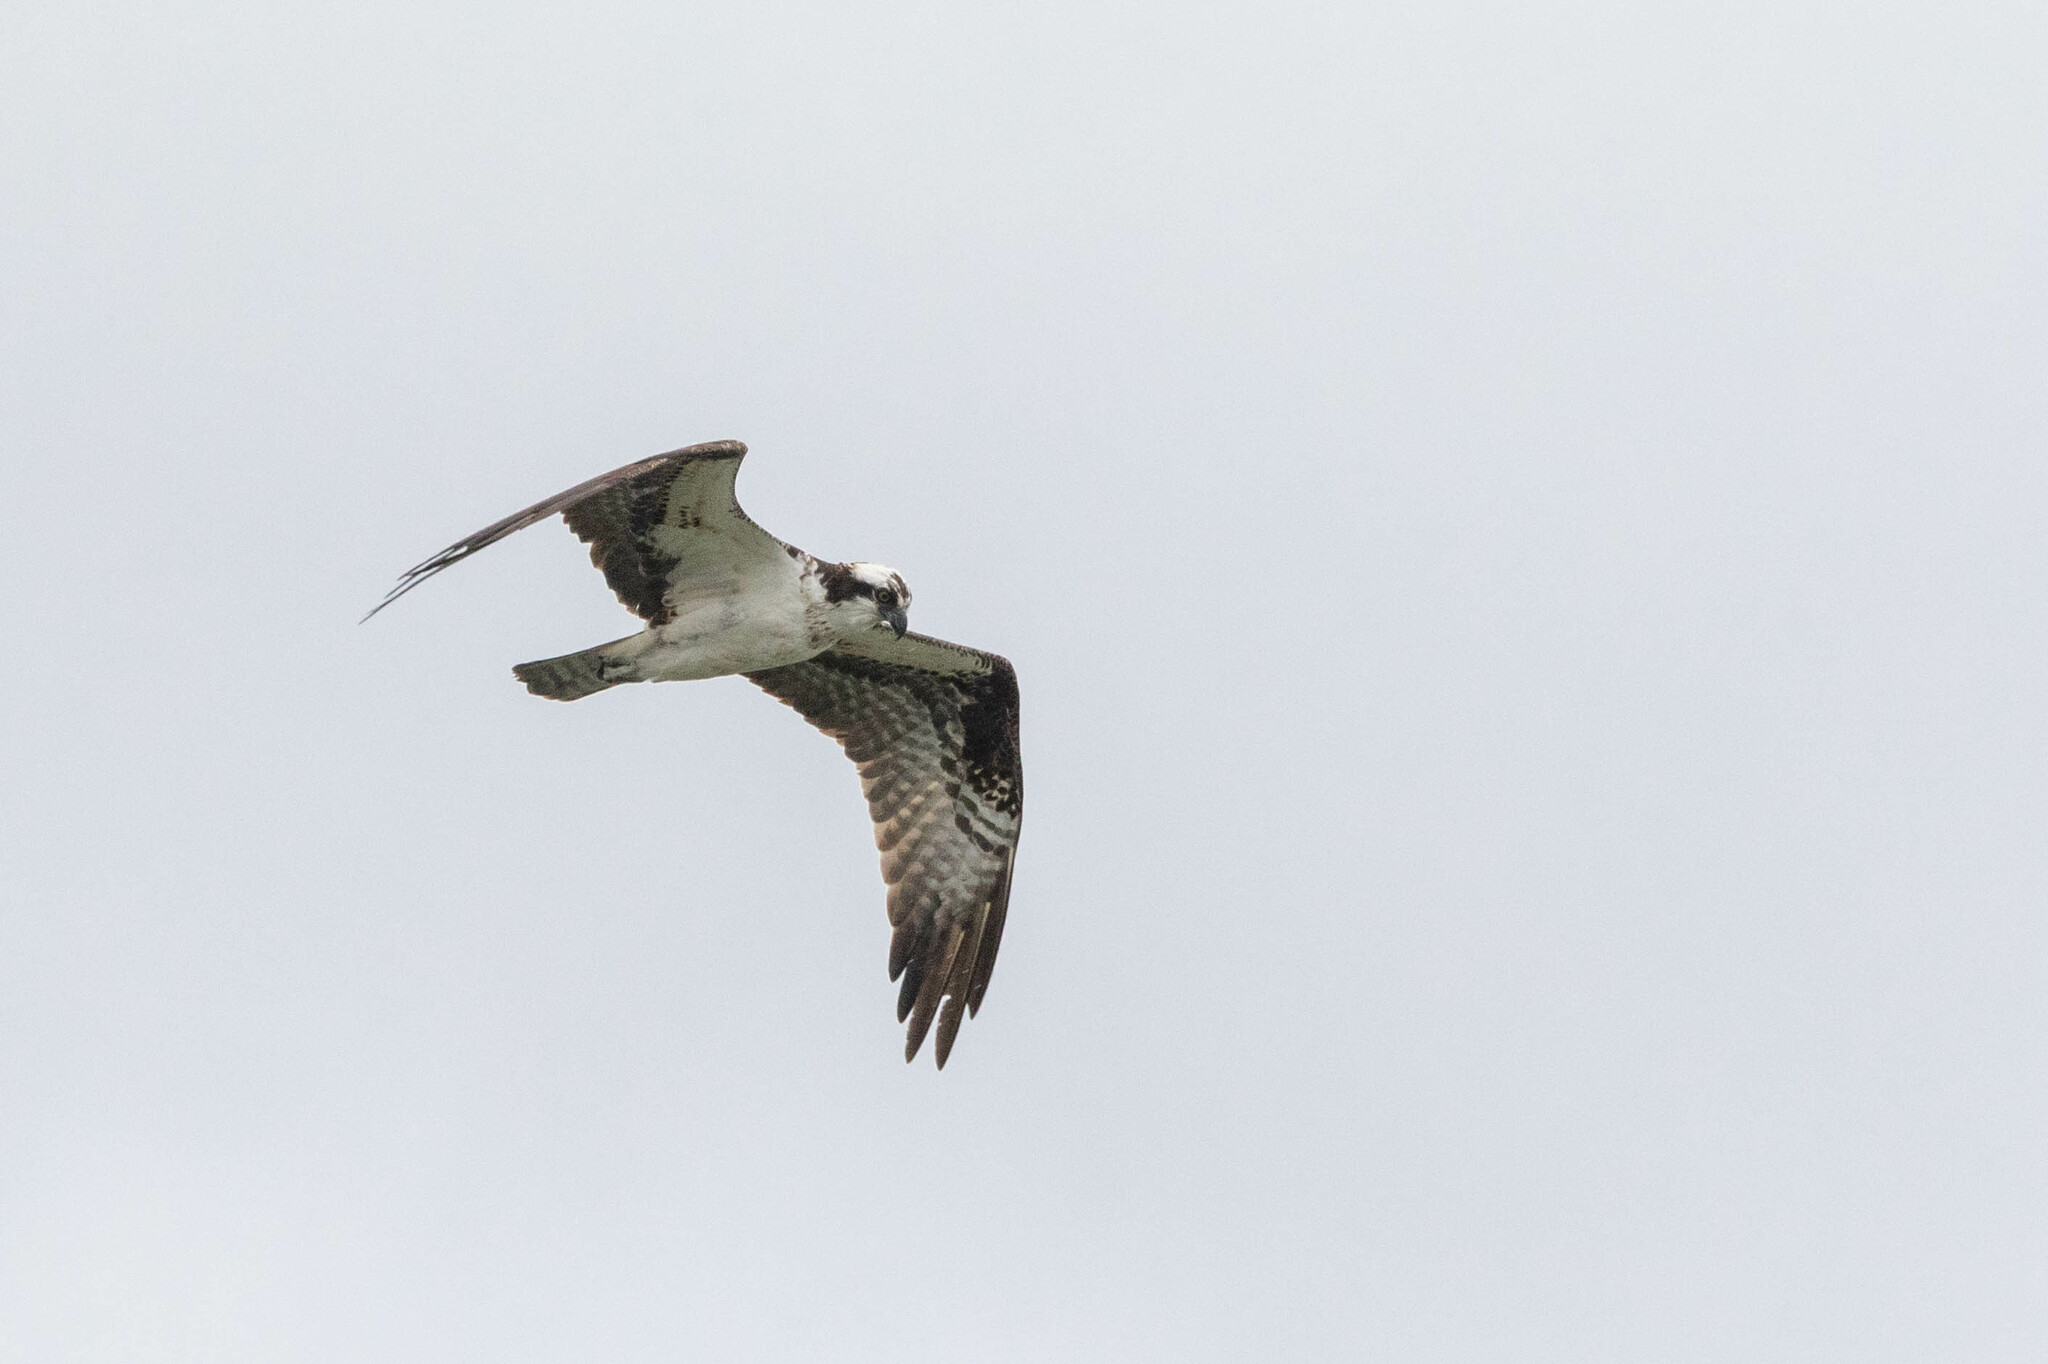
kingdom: Animalia
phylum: Chordata
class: Aves
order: Accipitriformes
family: Pandionidae
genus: Pandion
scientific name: Pandion haliaetus
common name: Osprey
